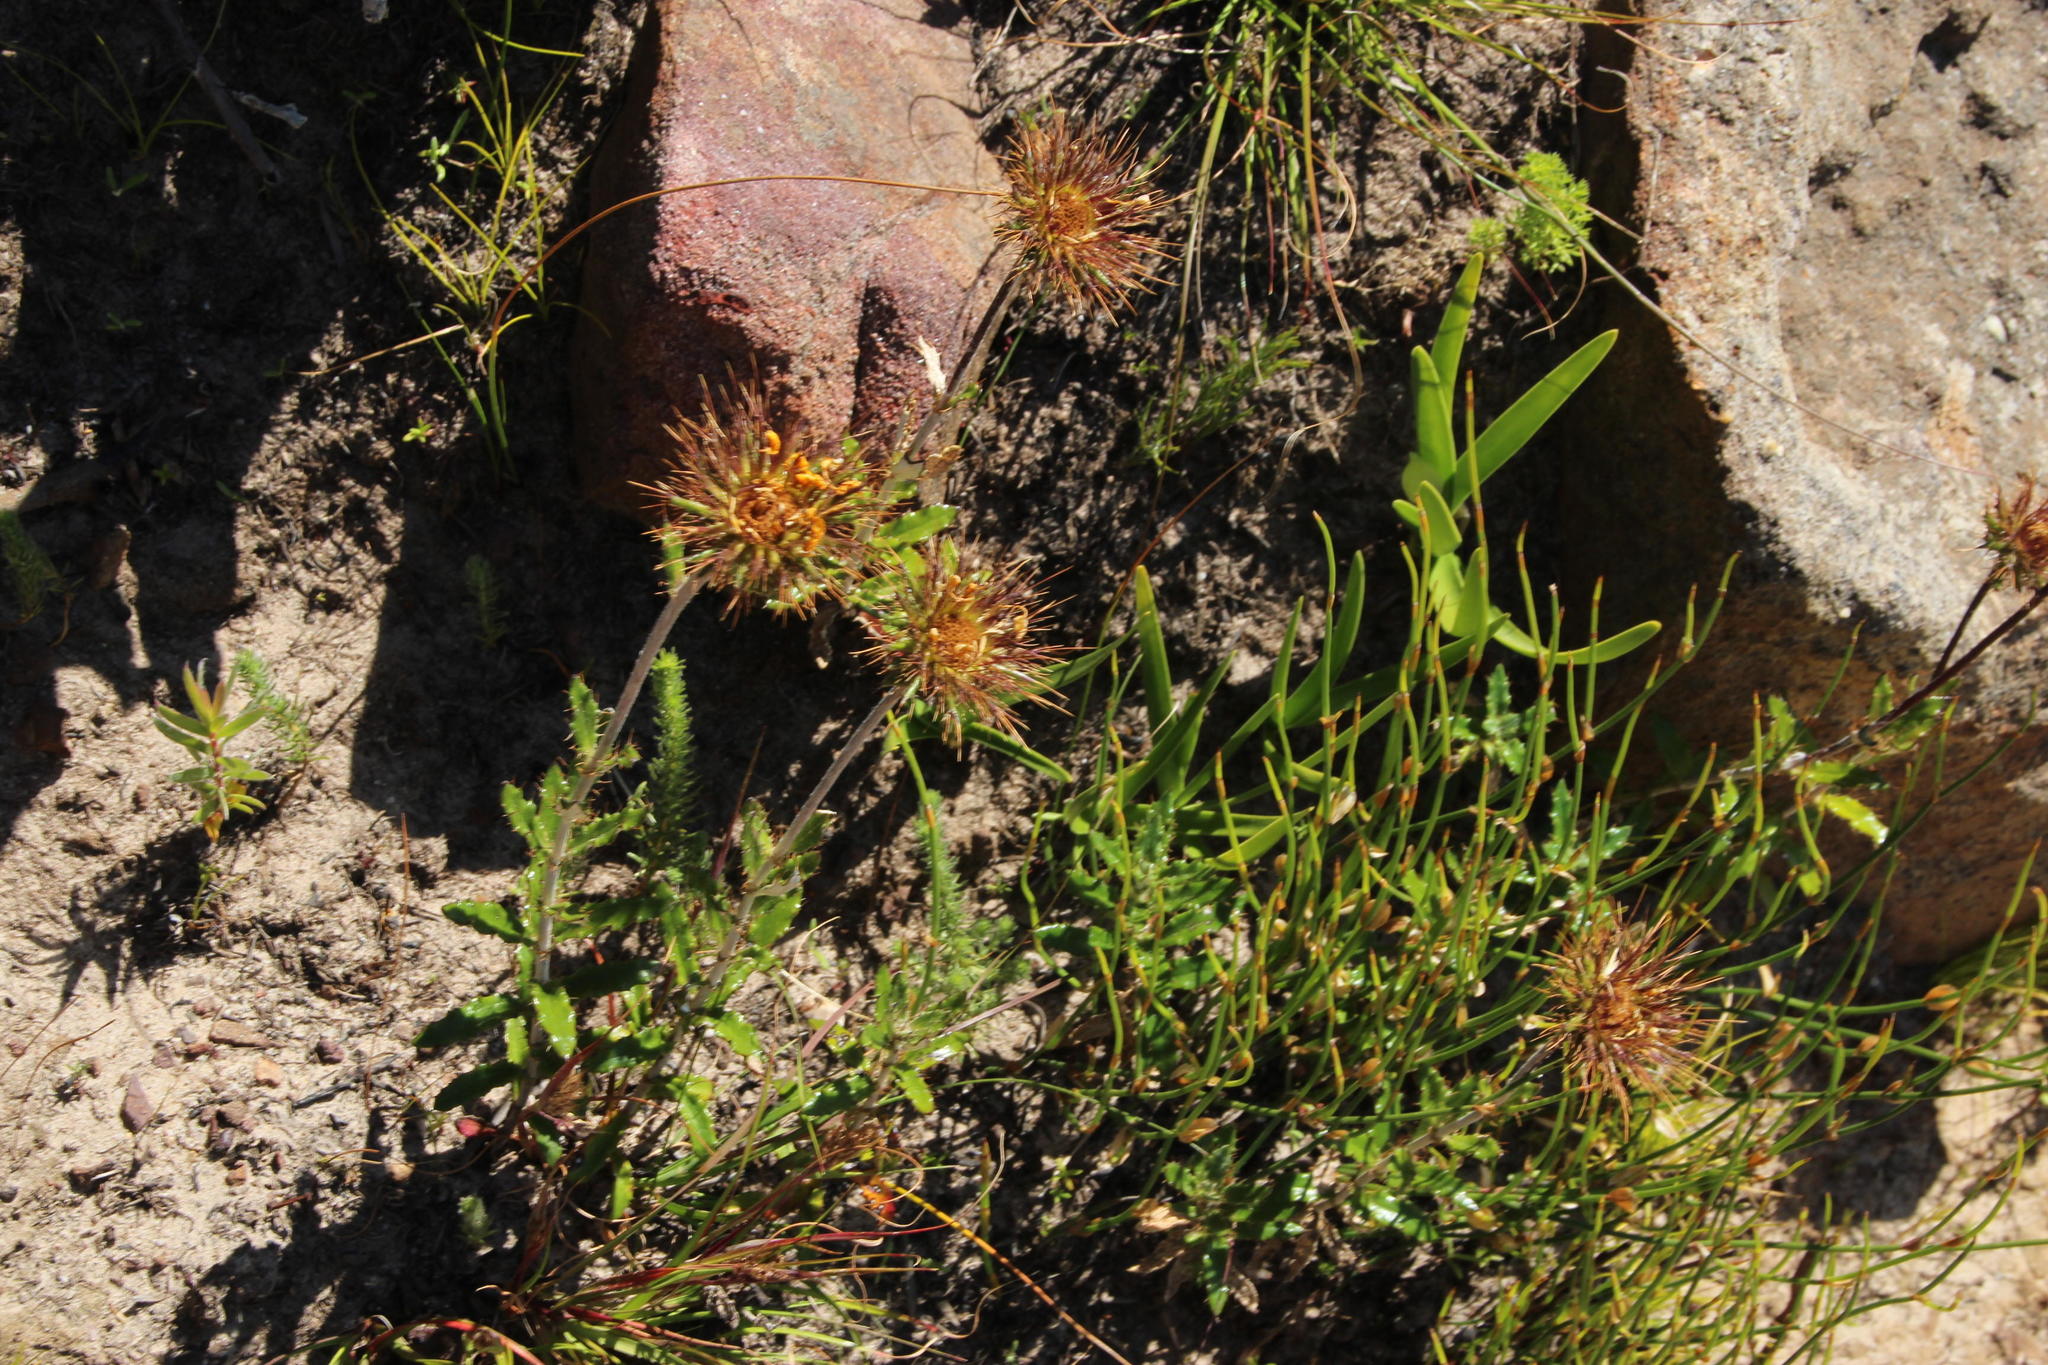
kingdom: Plantae
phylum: Tracheophyta
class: Magnoliopsida
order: Asterales
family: Asteraceae
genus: Berkheya
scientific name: Berkheya barbata
